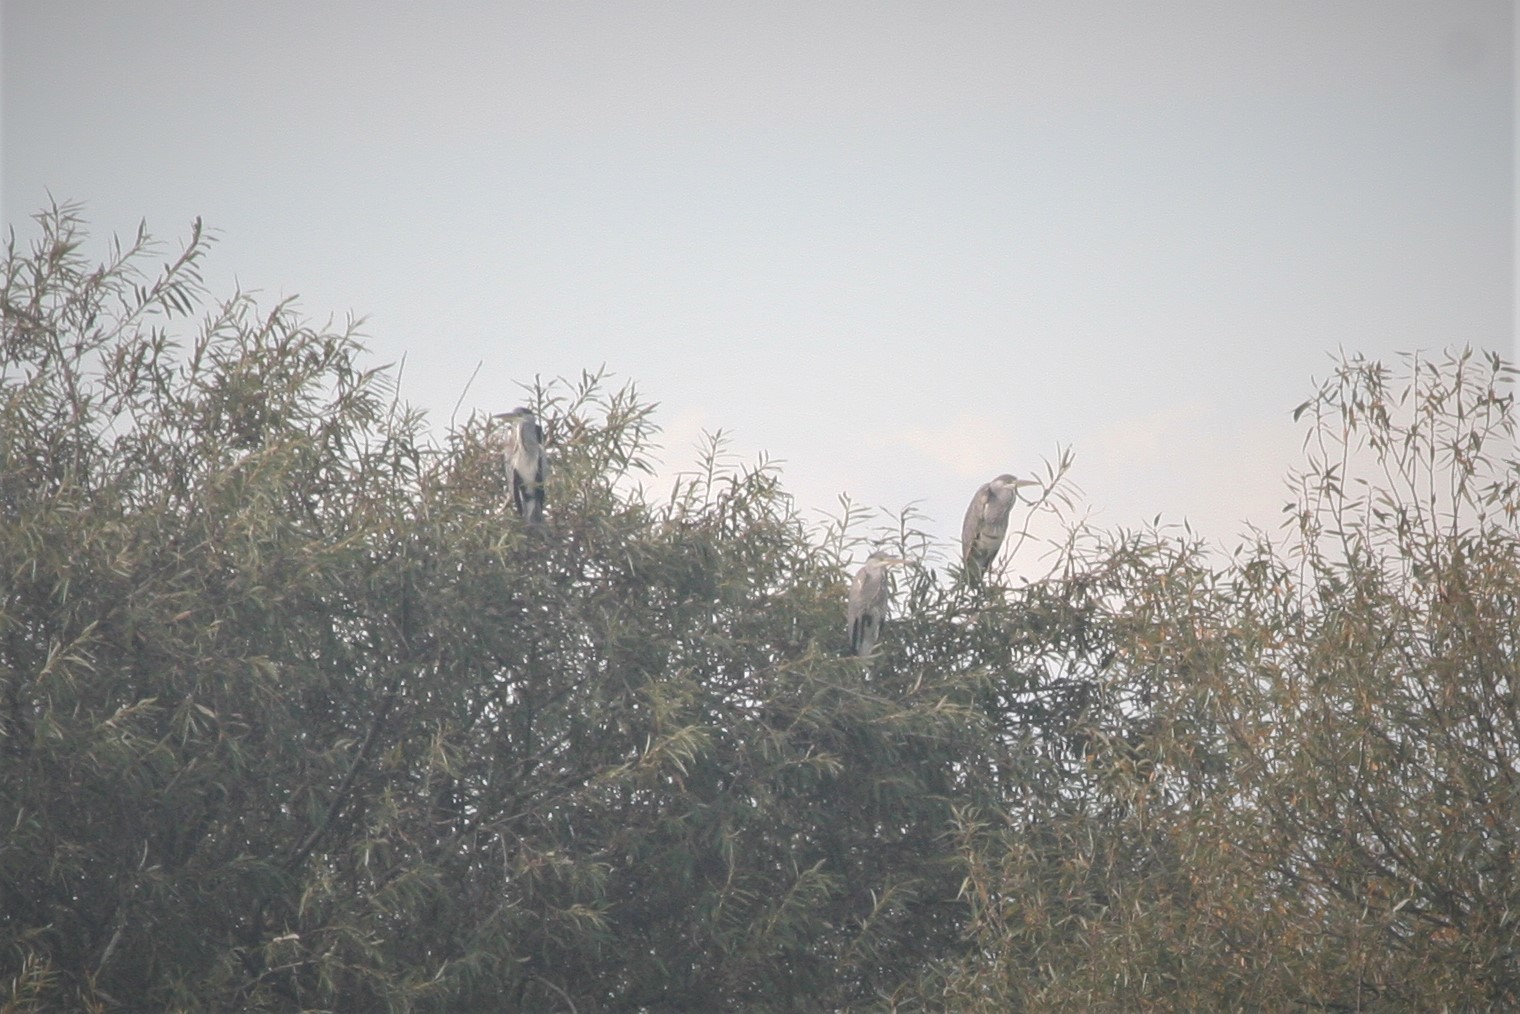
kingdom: Animalia
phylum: Chordata
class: Aves
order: Pelecaniformes
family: Ardeidae
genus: Ardea
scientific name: Ardea cinerea
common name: Grey heron
